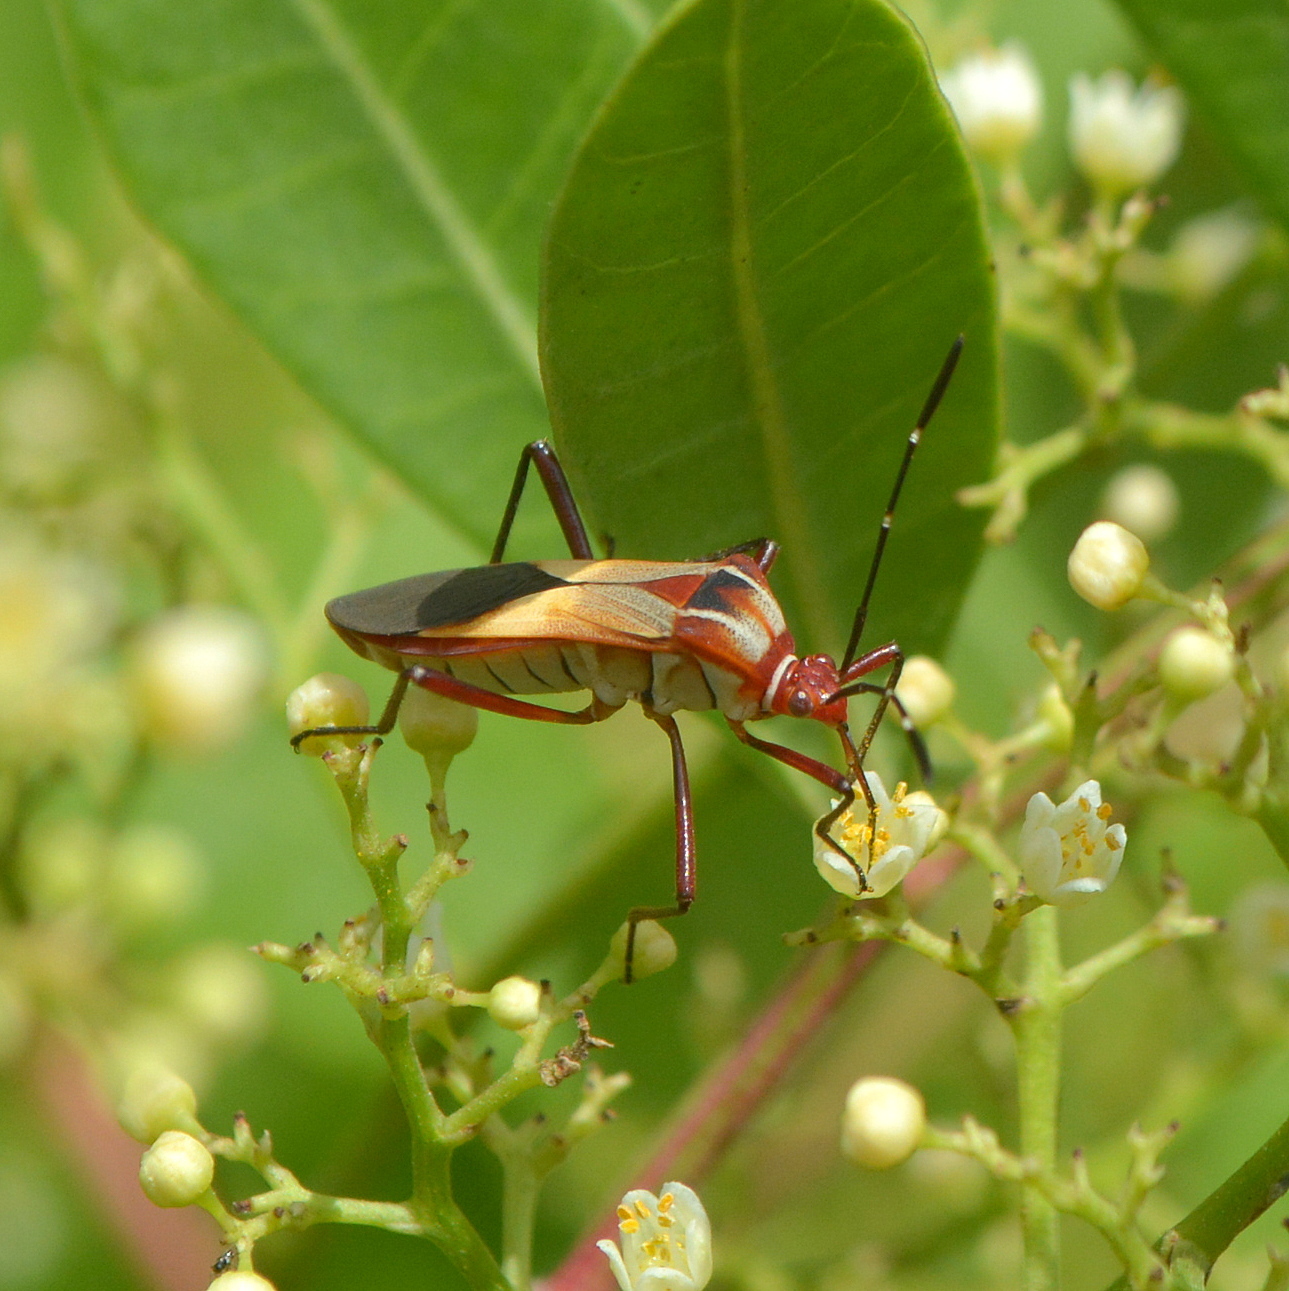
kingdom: Animalia
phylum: Arthropoda
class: Insecta
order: Hemiptera
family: Coreidae
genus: Hypselonotus
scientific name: Hypselonotus interruptus
